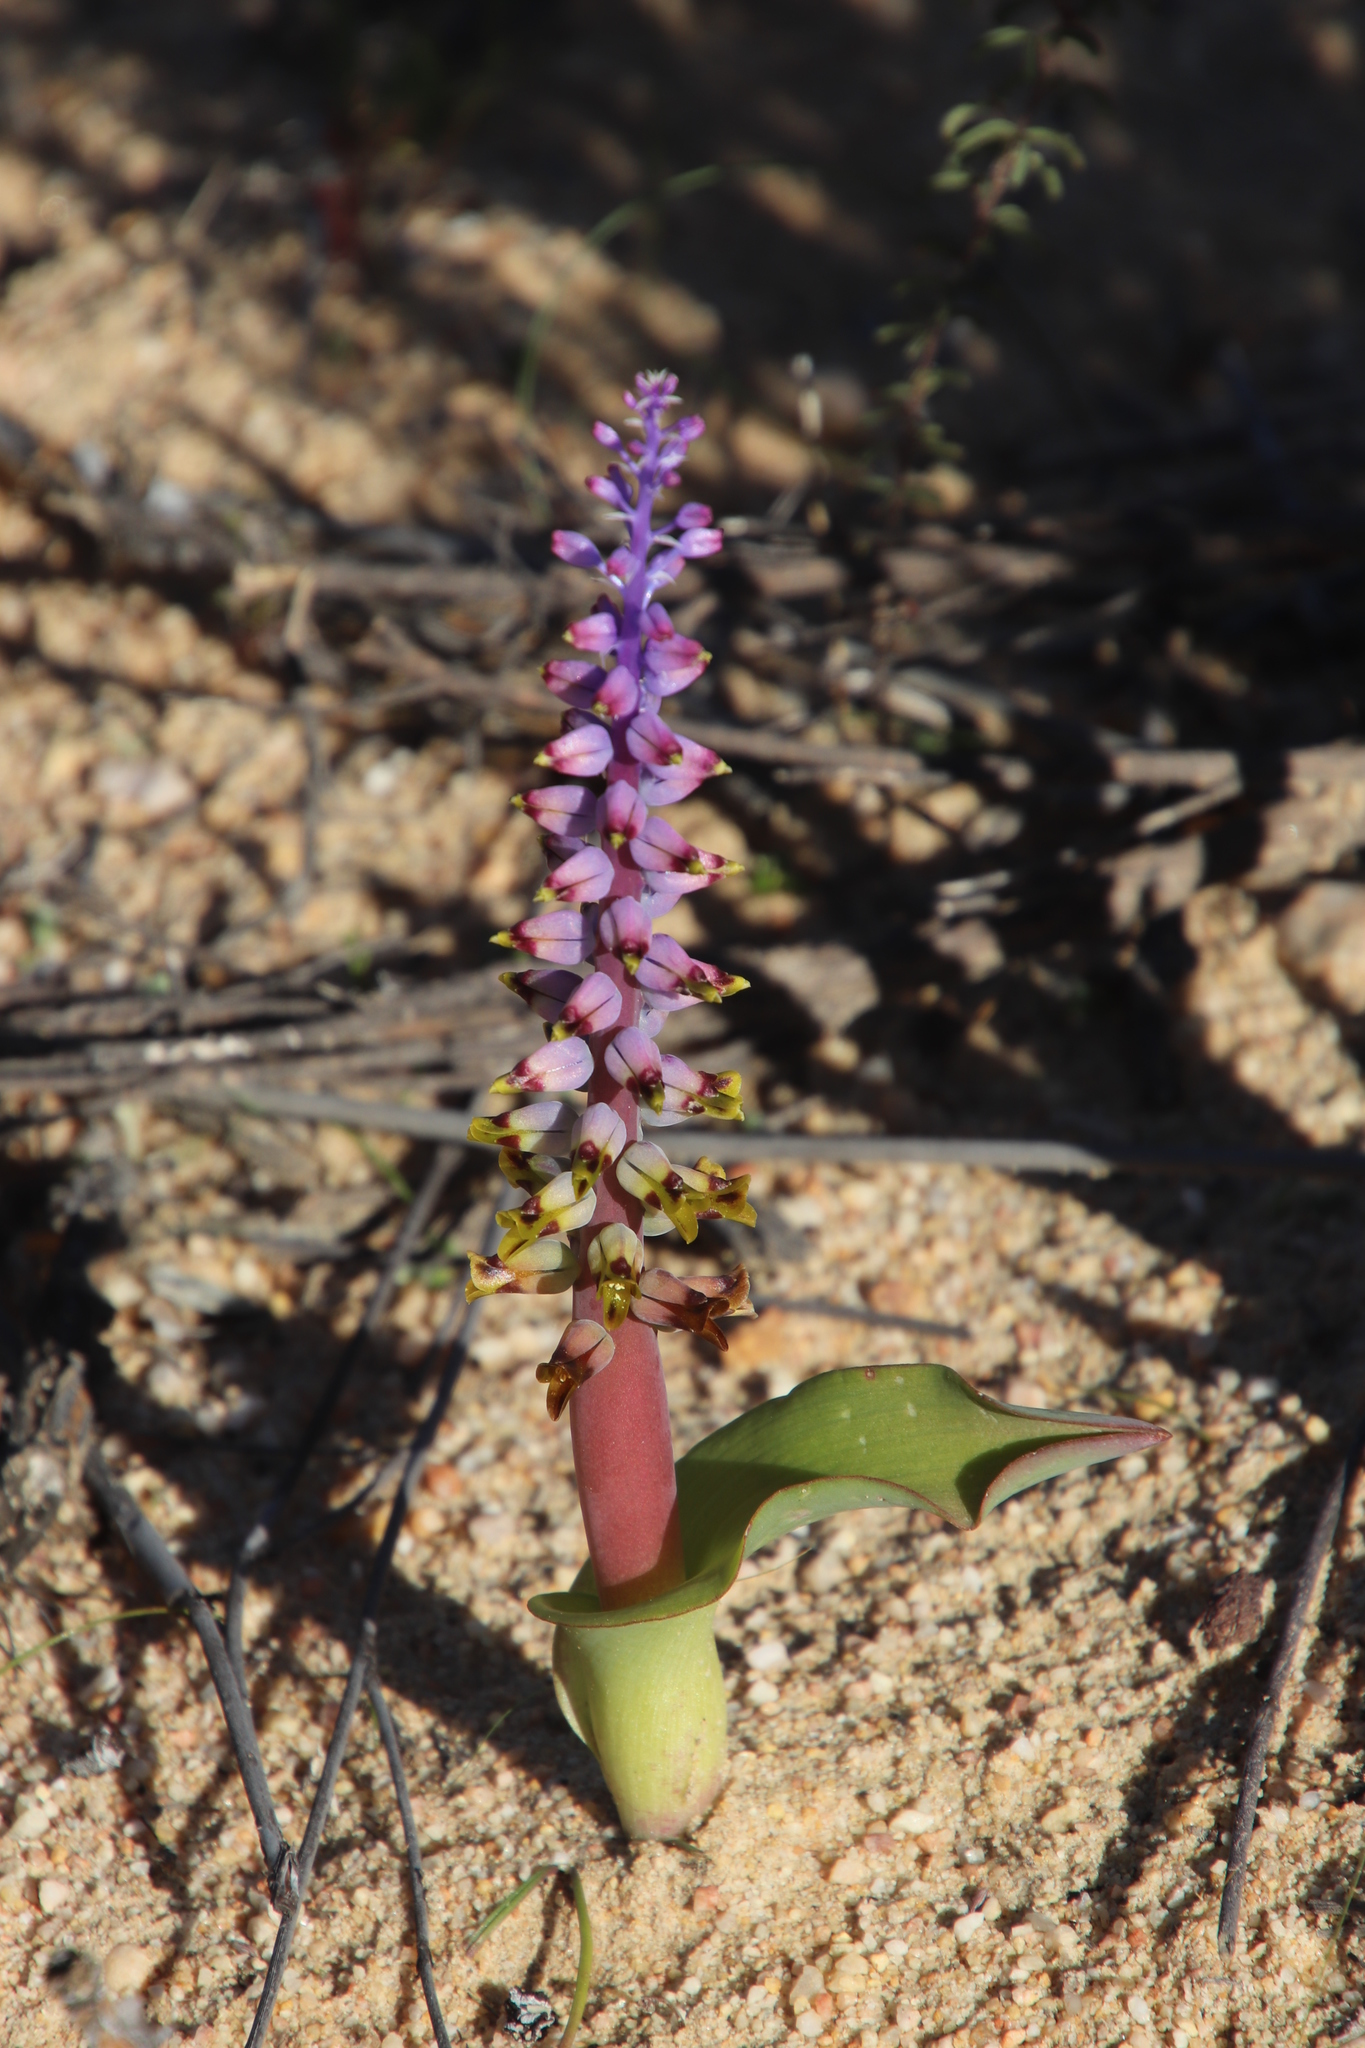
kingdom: Plantae
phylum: Tracheophyta
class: Liliopsida
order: Asparagales
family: Asparagaceae
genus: Lachenalia
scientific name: Lachenalia mutabilis
